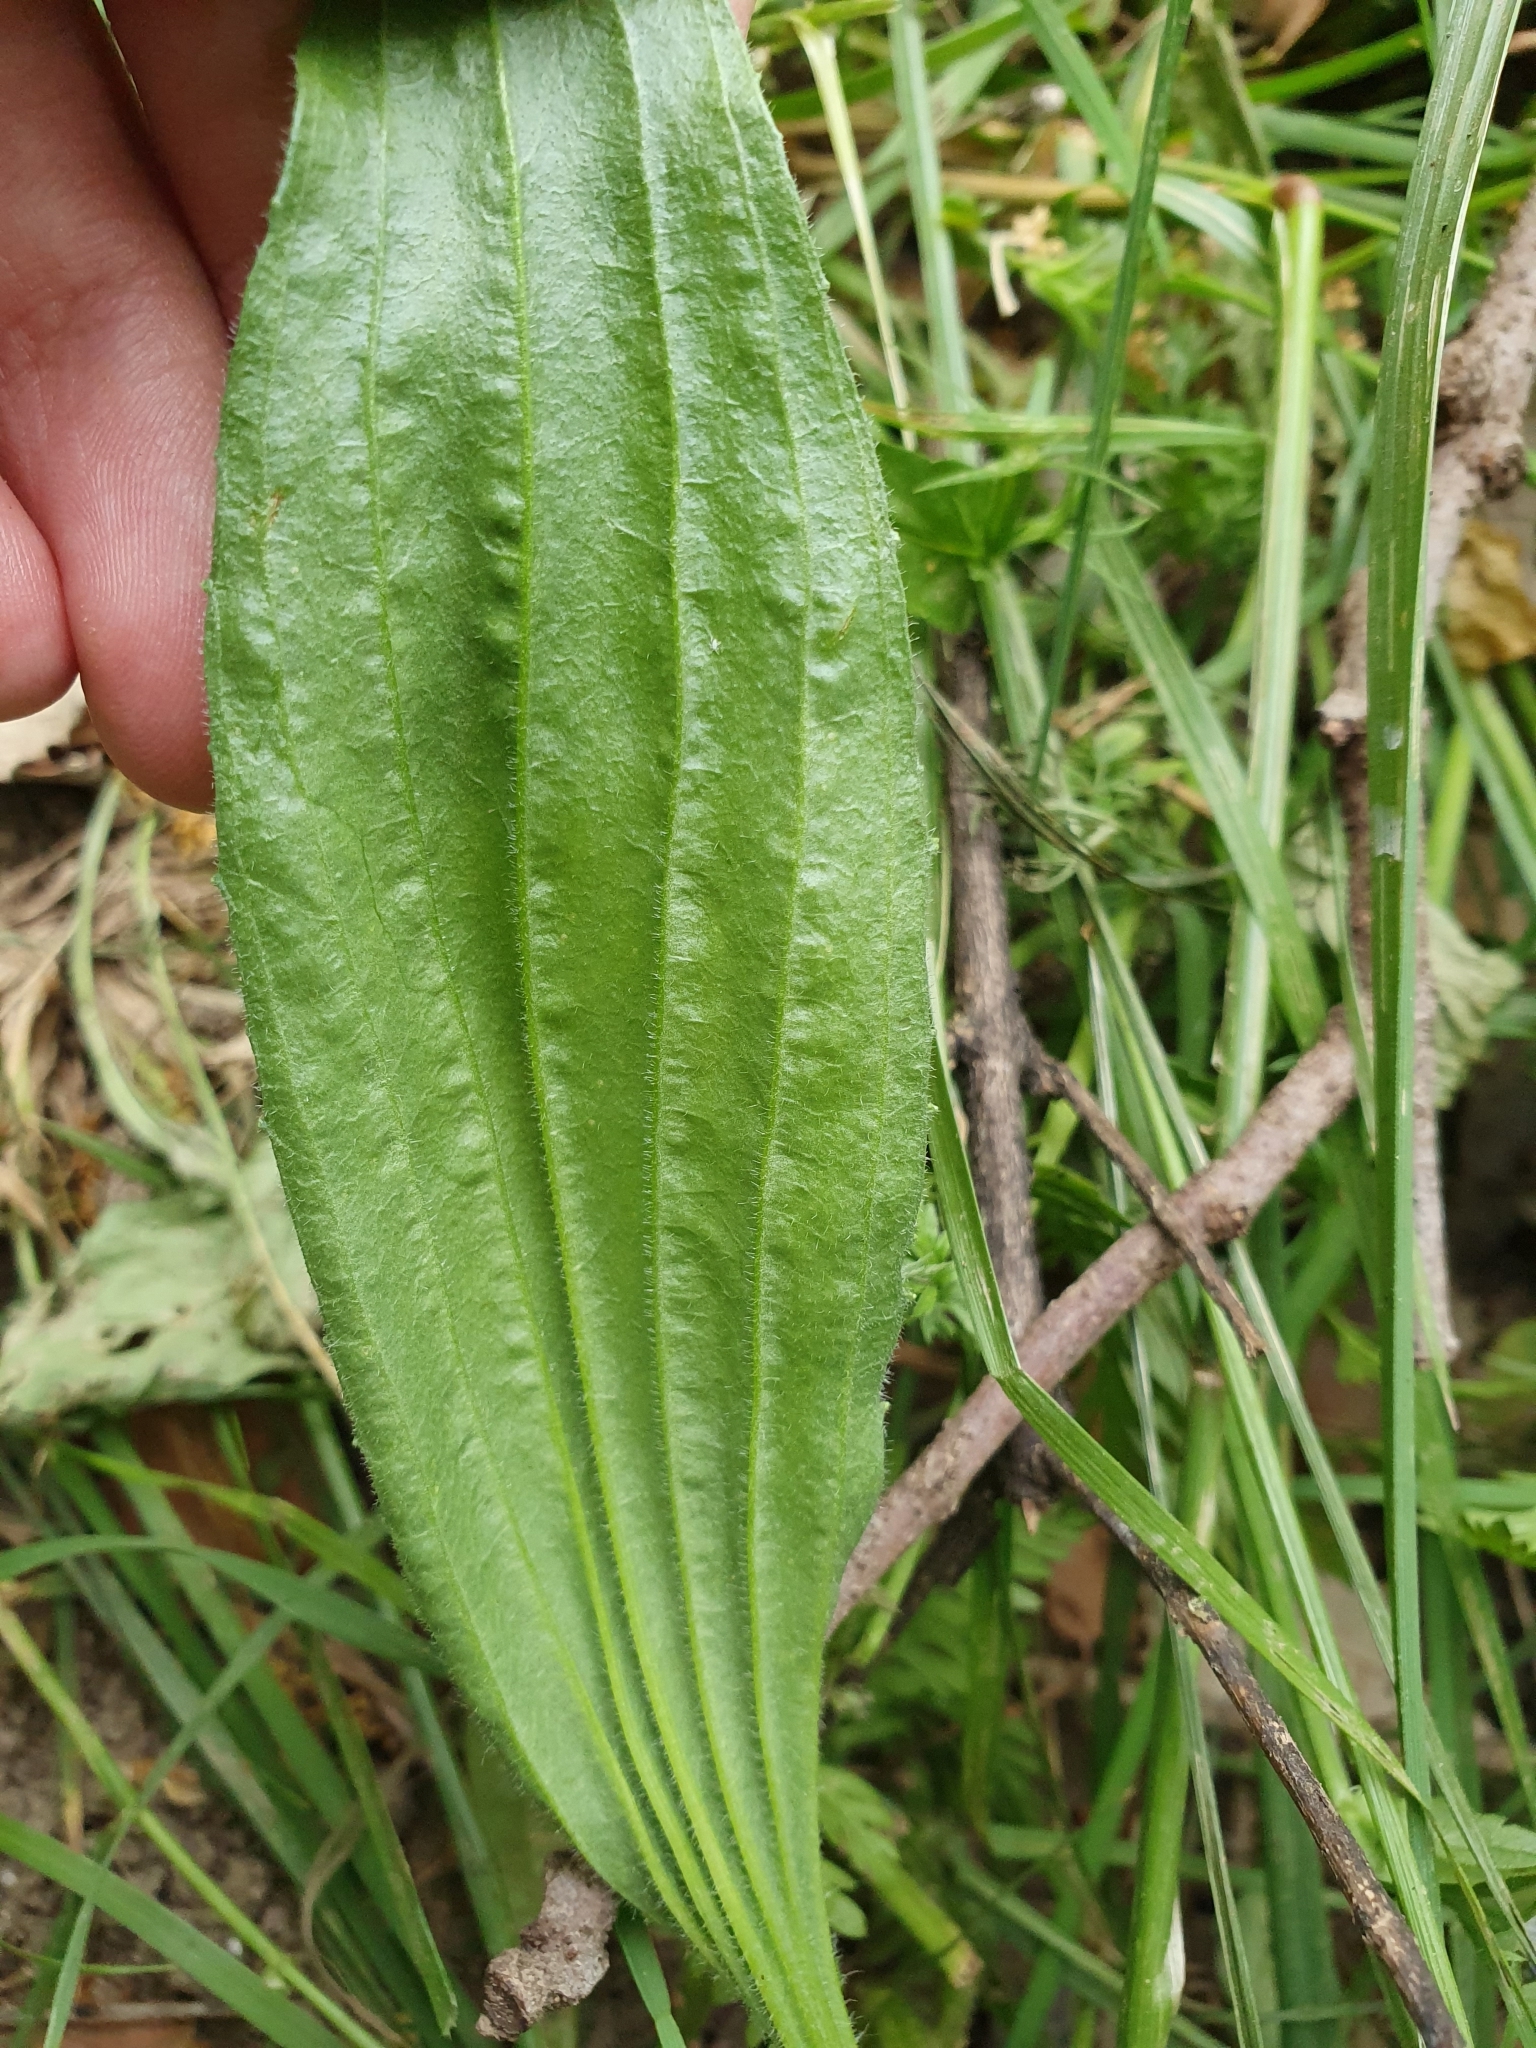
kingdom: Plantae
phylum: Tracheophyta
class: Magnoliopsida
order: Lamiales
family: Plantaginaceae
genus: Plantago
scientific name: Plantago lanceolata
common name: Ribwort plantain
